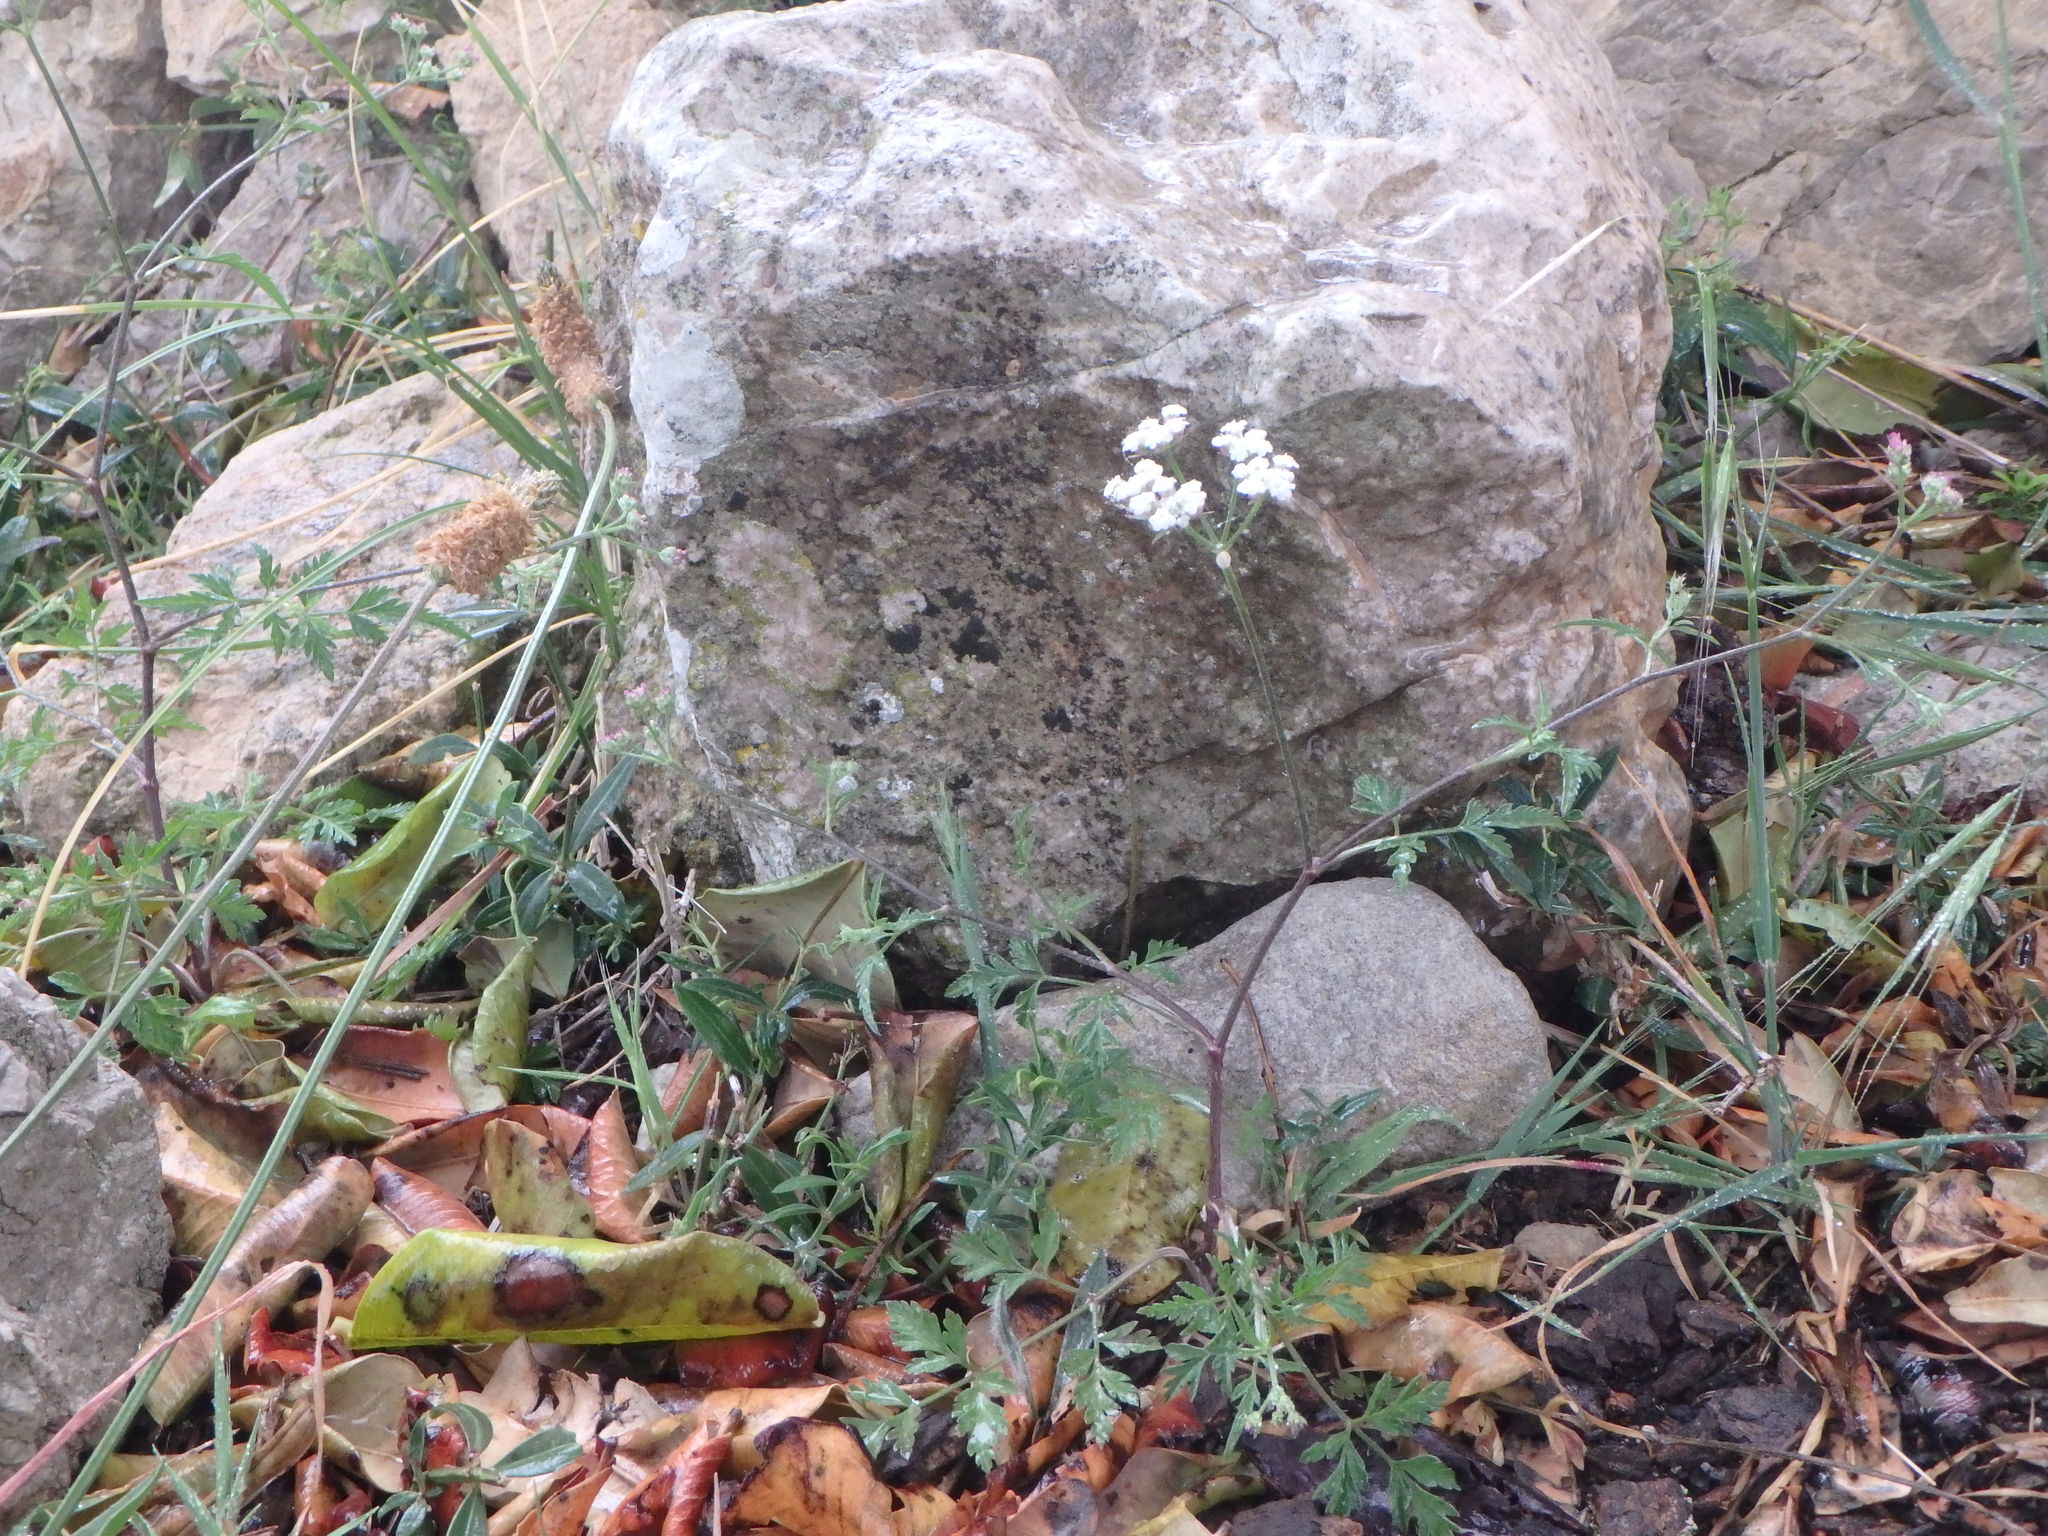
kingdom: Plantae
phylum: Tracheophyta
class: Magnoliopsida
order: Apiales
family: Apiaceae
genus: Torilis
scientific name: Torilis arvensis
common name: Spreading hedge-parsley
